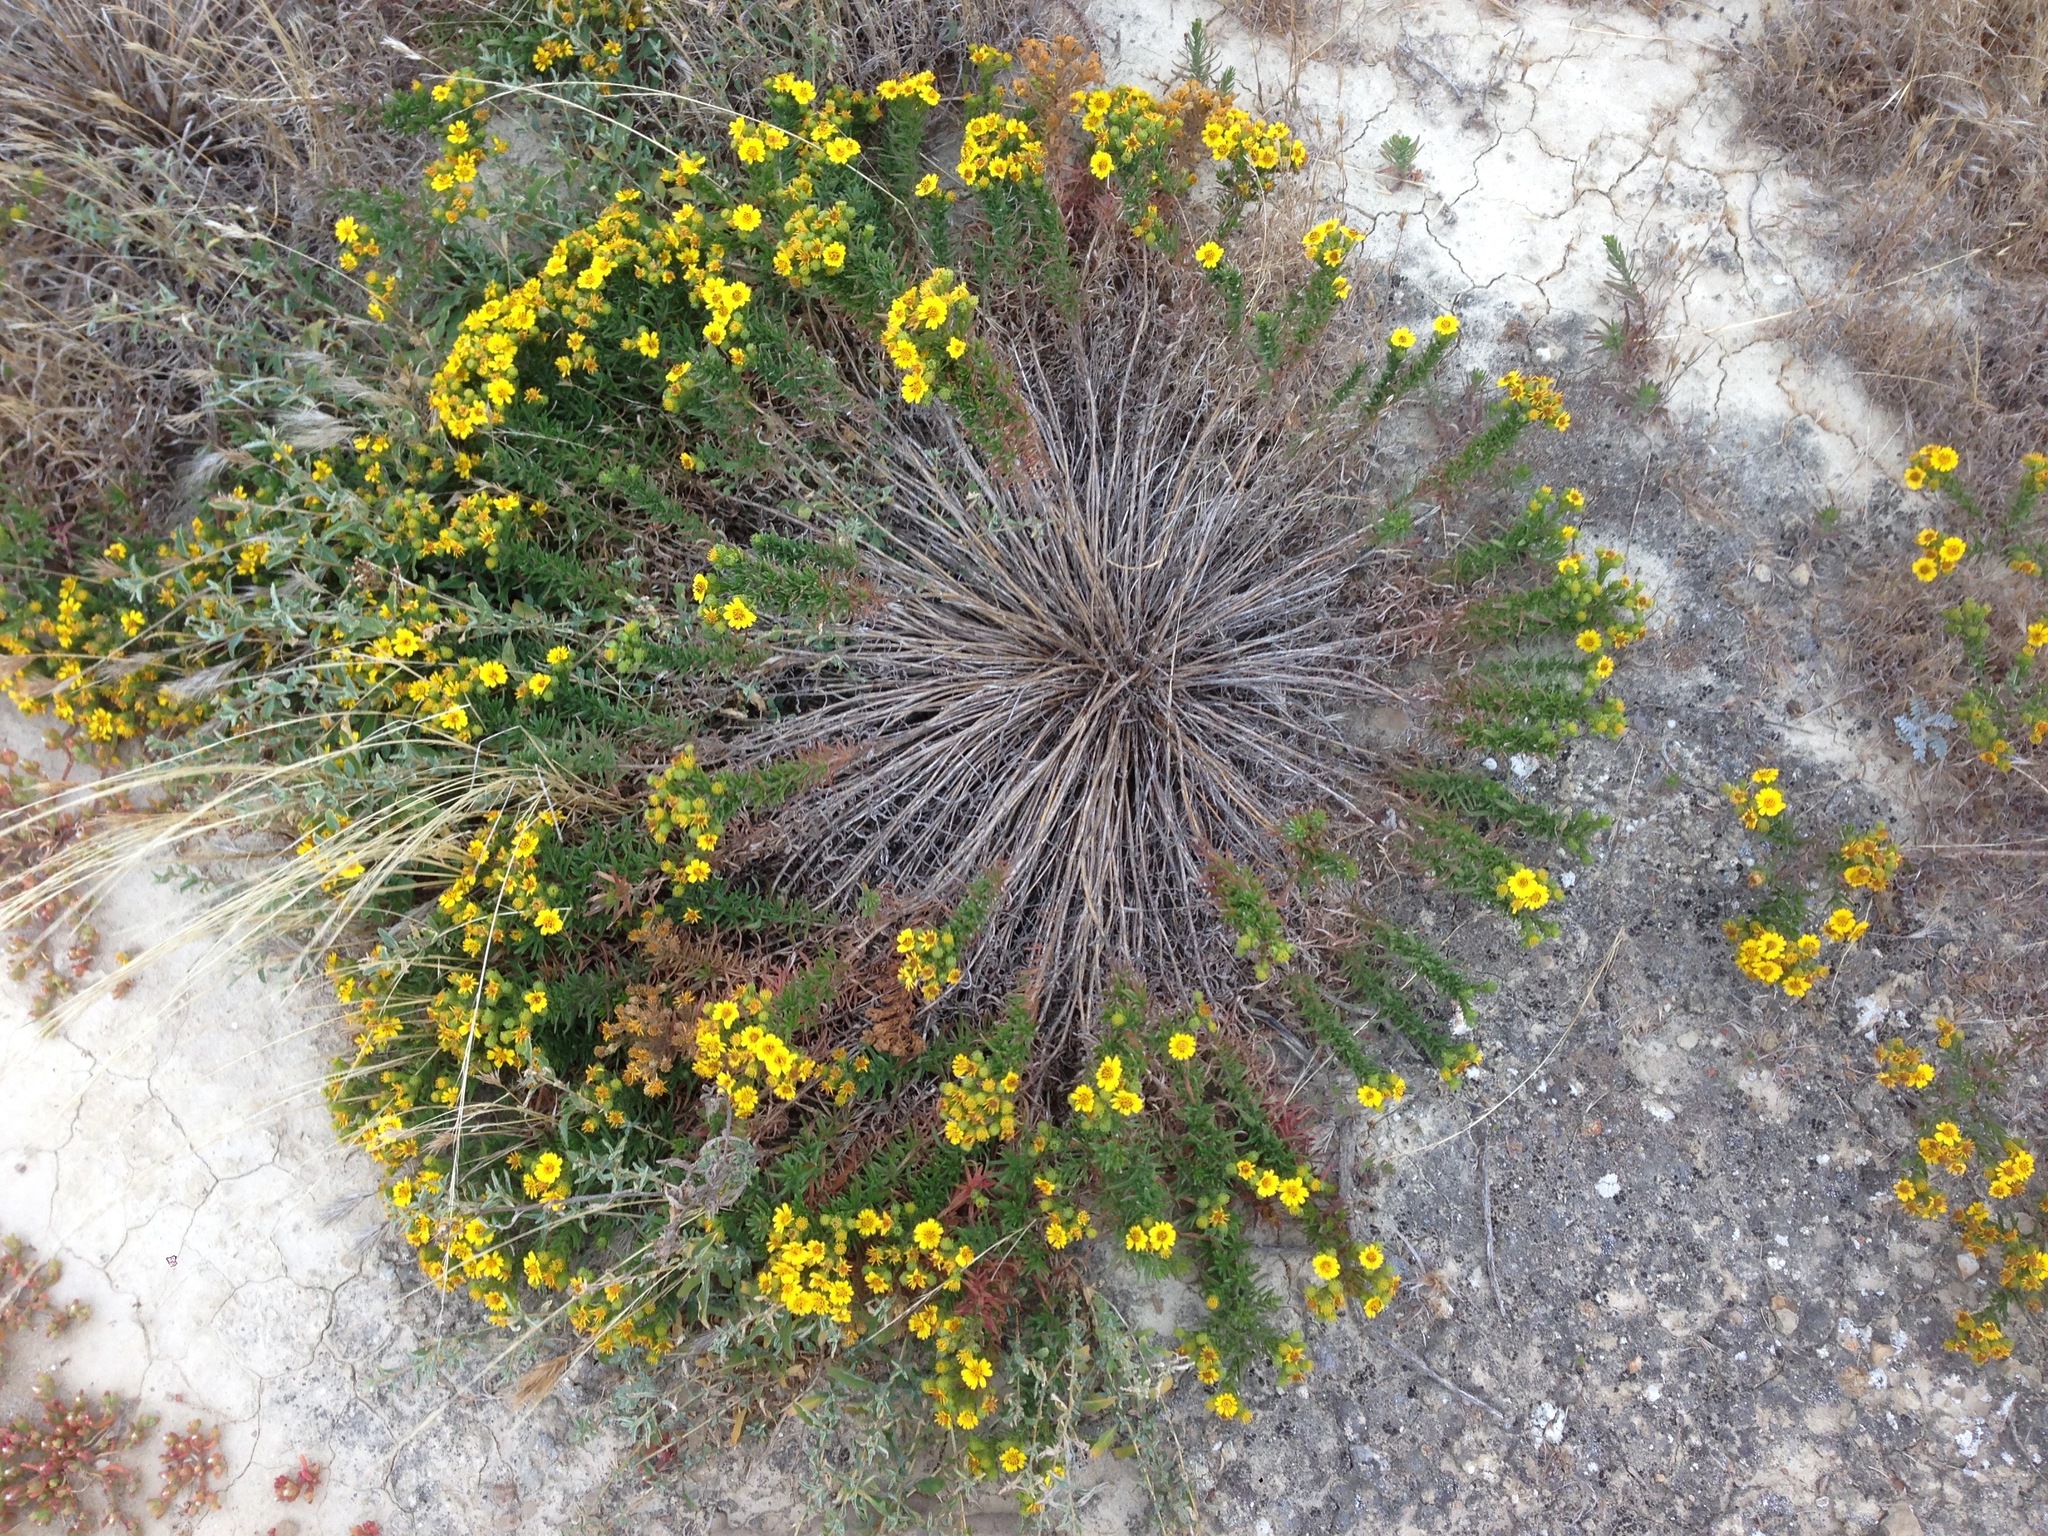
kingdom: Plantae
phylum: Tracheophyta
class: Magnoliopsida
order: Asterales
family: Asteraceae
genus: Deinandra
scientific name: Deinandra clementina
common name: Island tarplant
